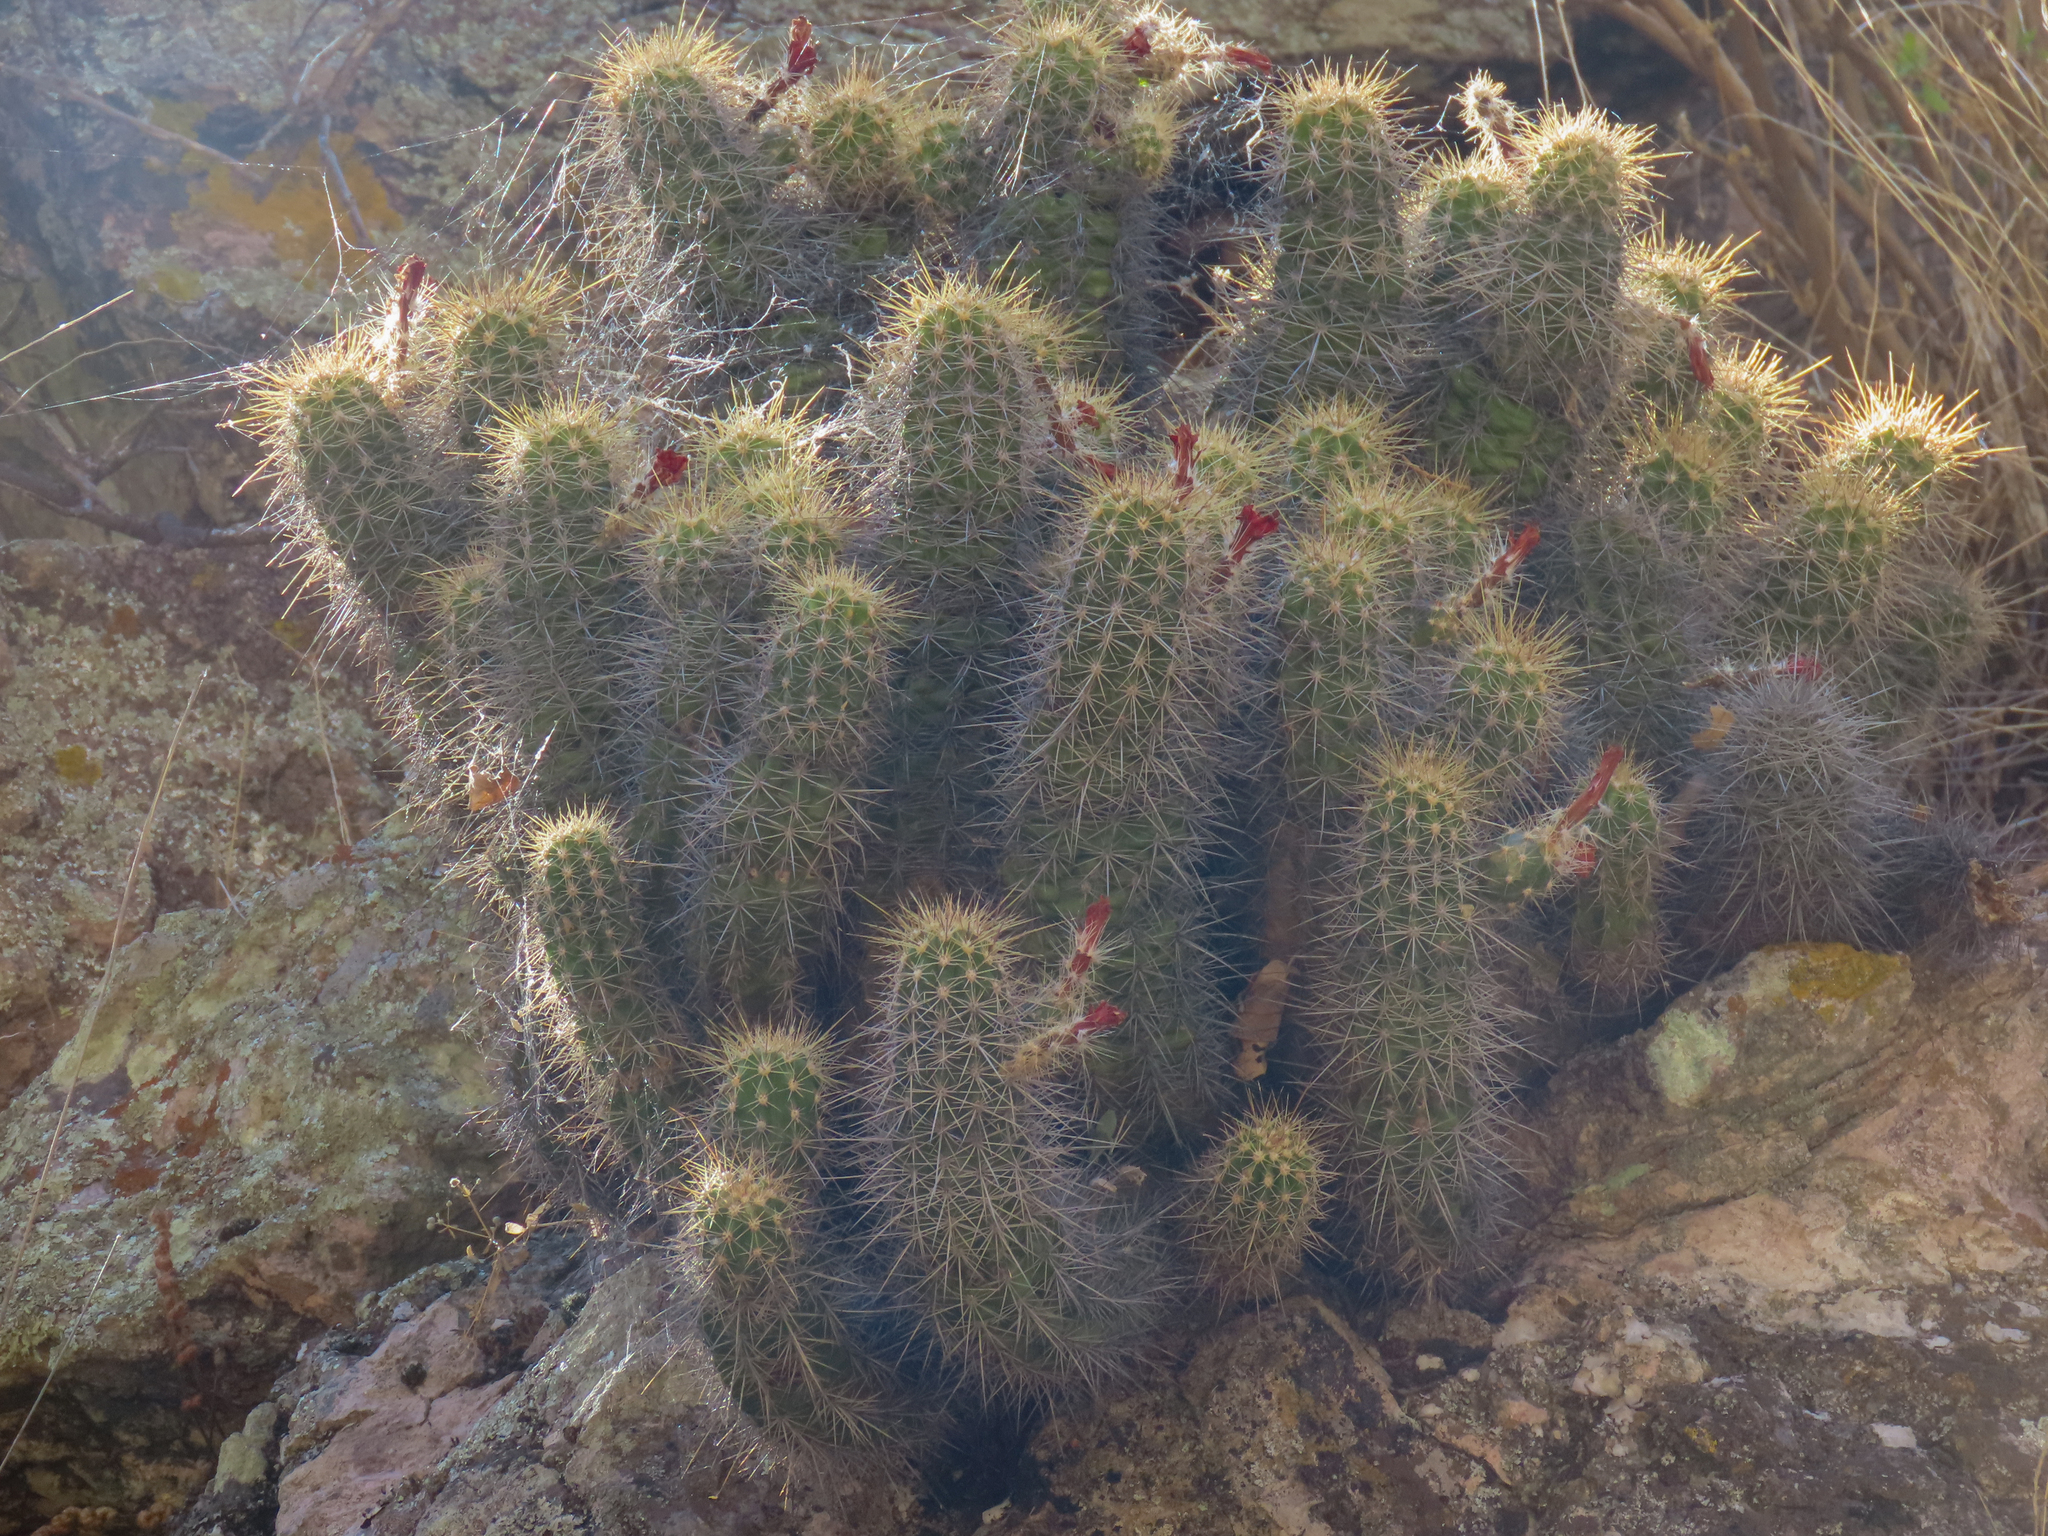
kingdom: Plantae
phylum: Tracheophyta
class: Magnoliopsida
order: Caryophyllales
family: Cactaceae
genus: Echinocereus
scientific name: Echinocereus coccineus
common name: Scarlet hedgehog cactus
